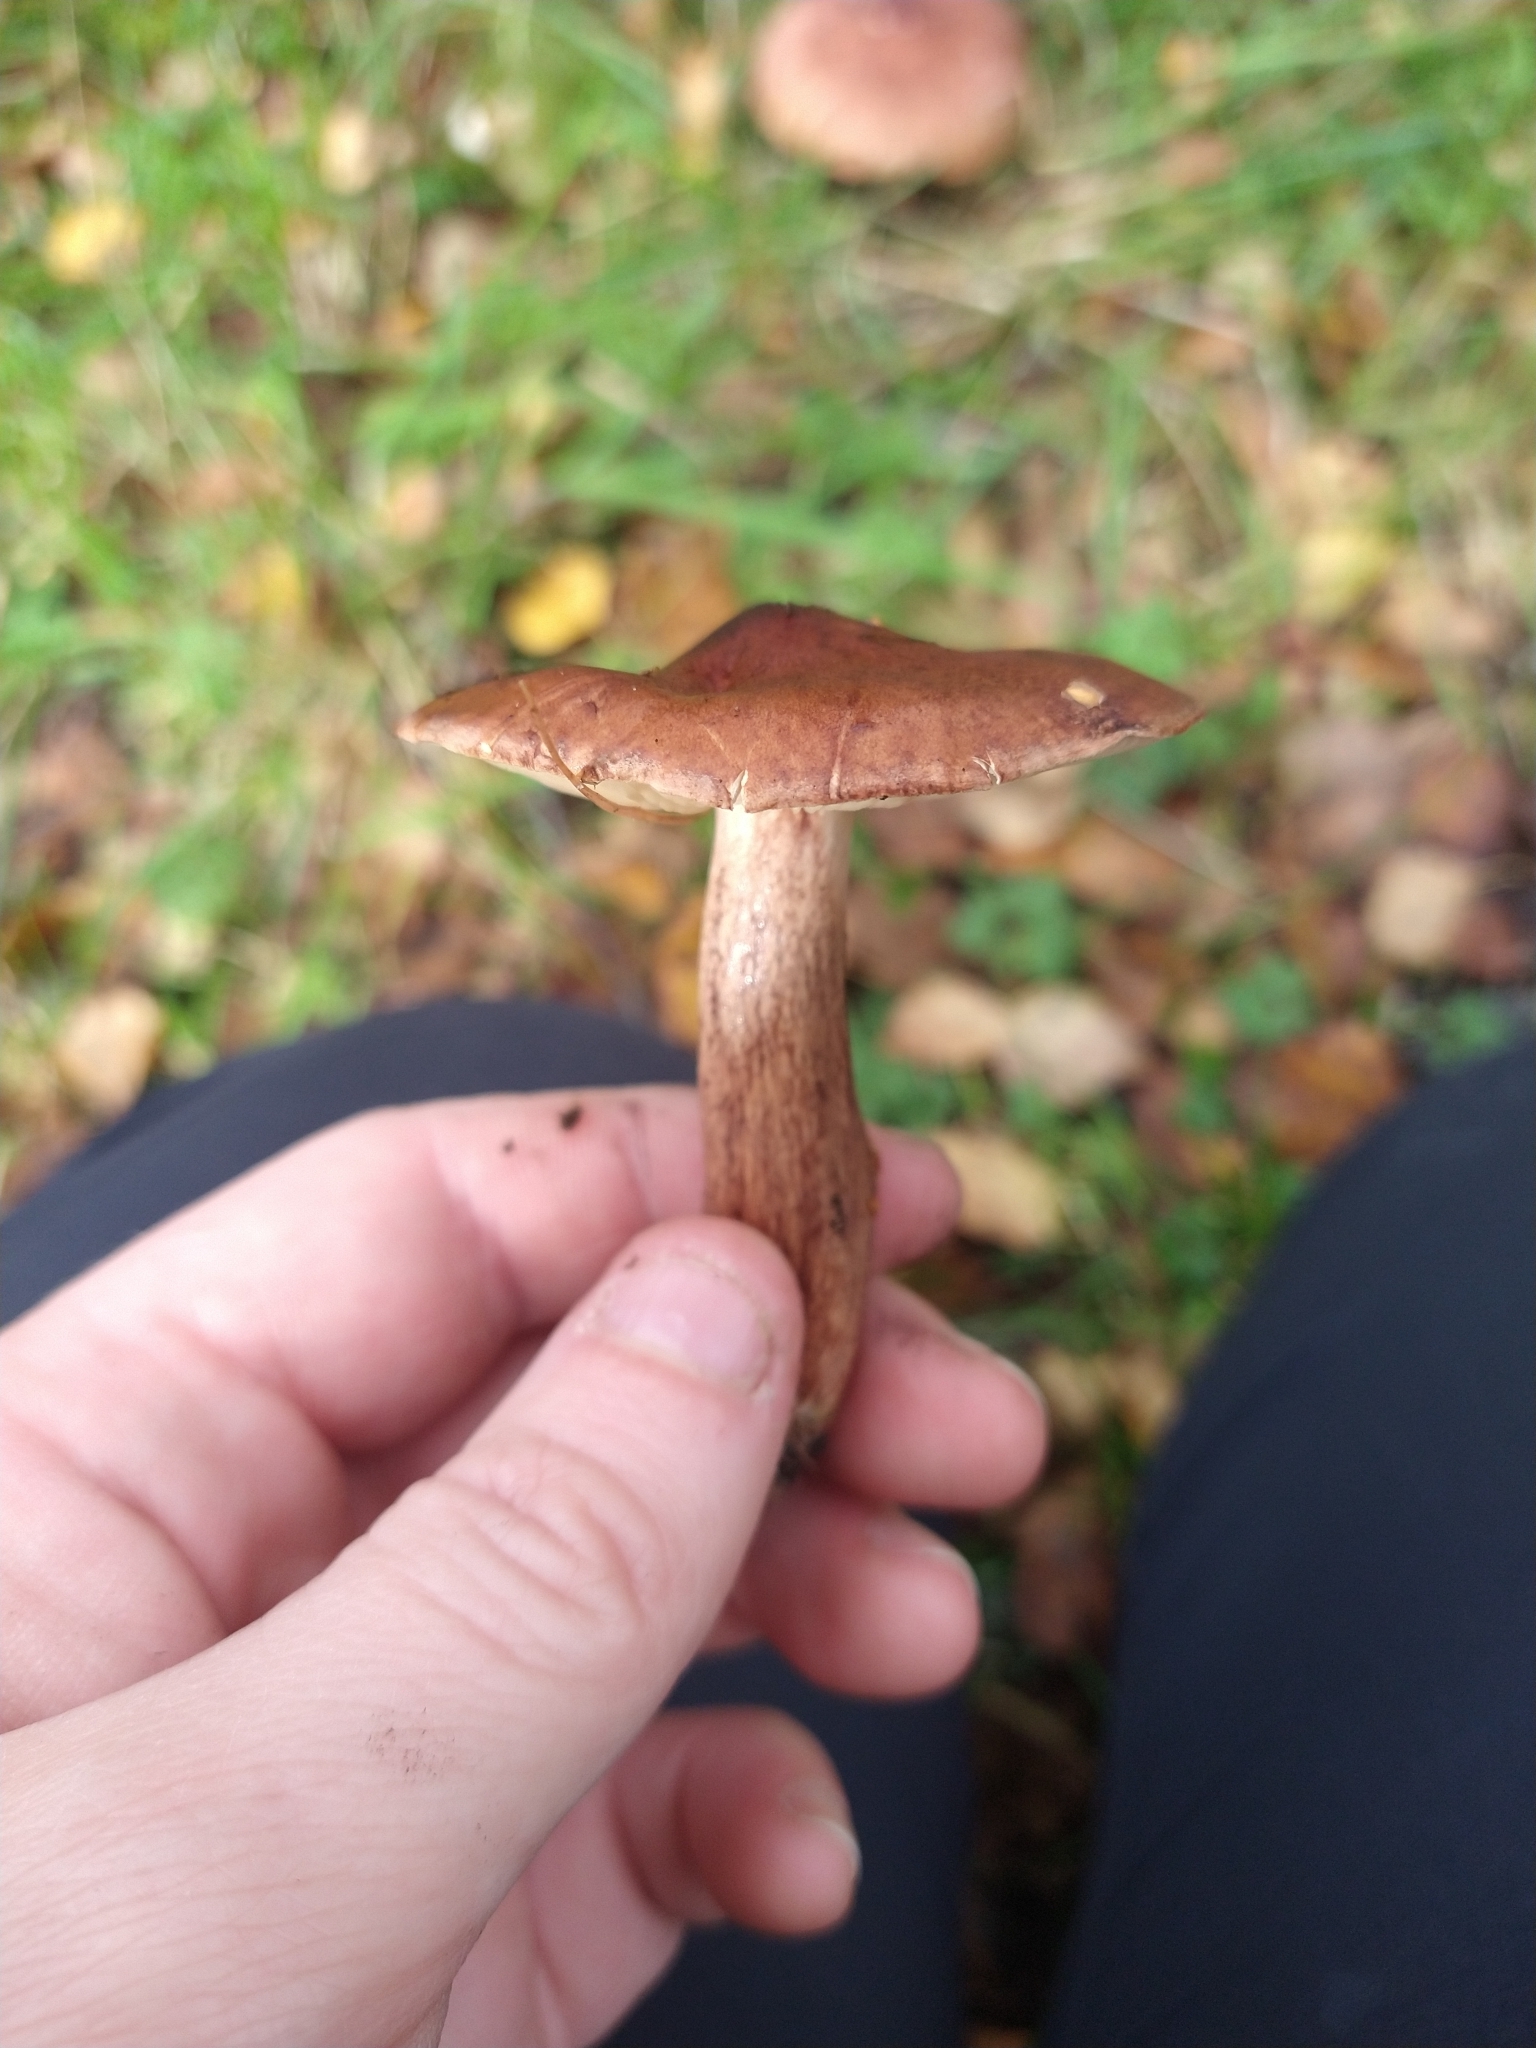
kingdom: Fungi
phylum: Basidiomycota
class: Agaricomycetes
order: Agaricales
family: Tricholomataceae
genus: Tricholoma
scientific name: Tricholoma fulvum
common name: Birch knight
